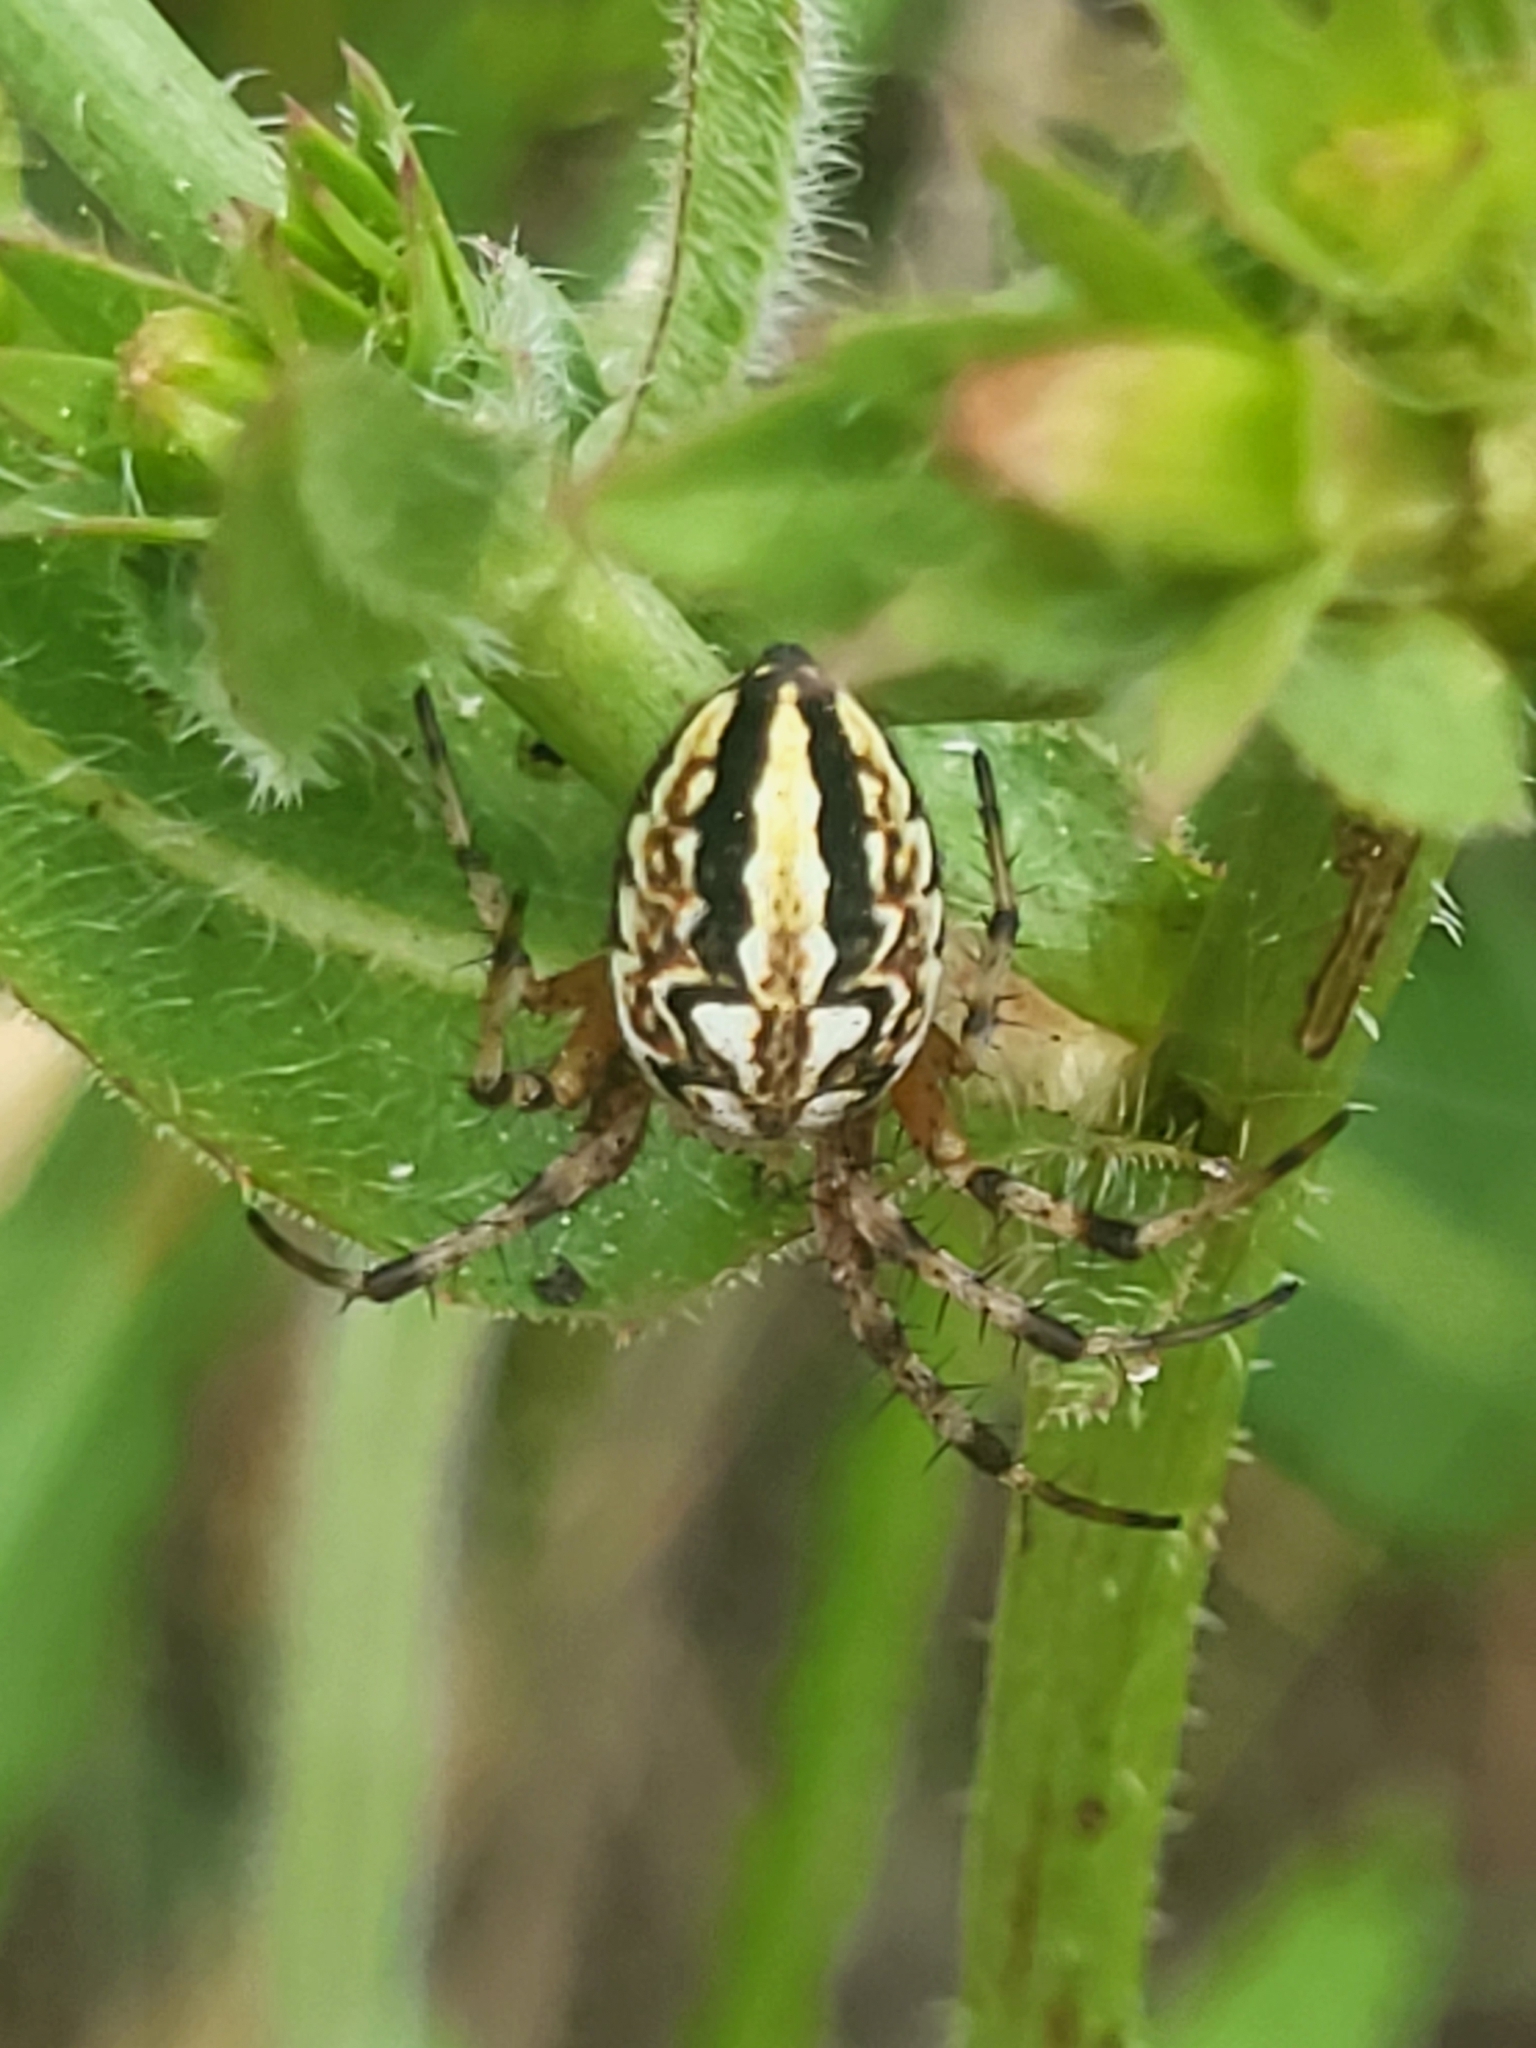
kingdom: Animalia
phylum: Arthropoda
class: Arachnida
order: Araneae
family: Araneidae
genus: Neoscona
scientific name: Neoscona adianta
